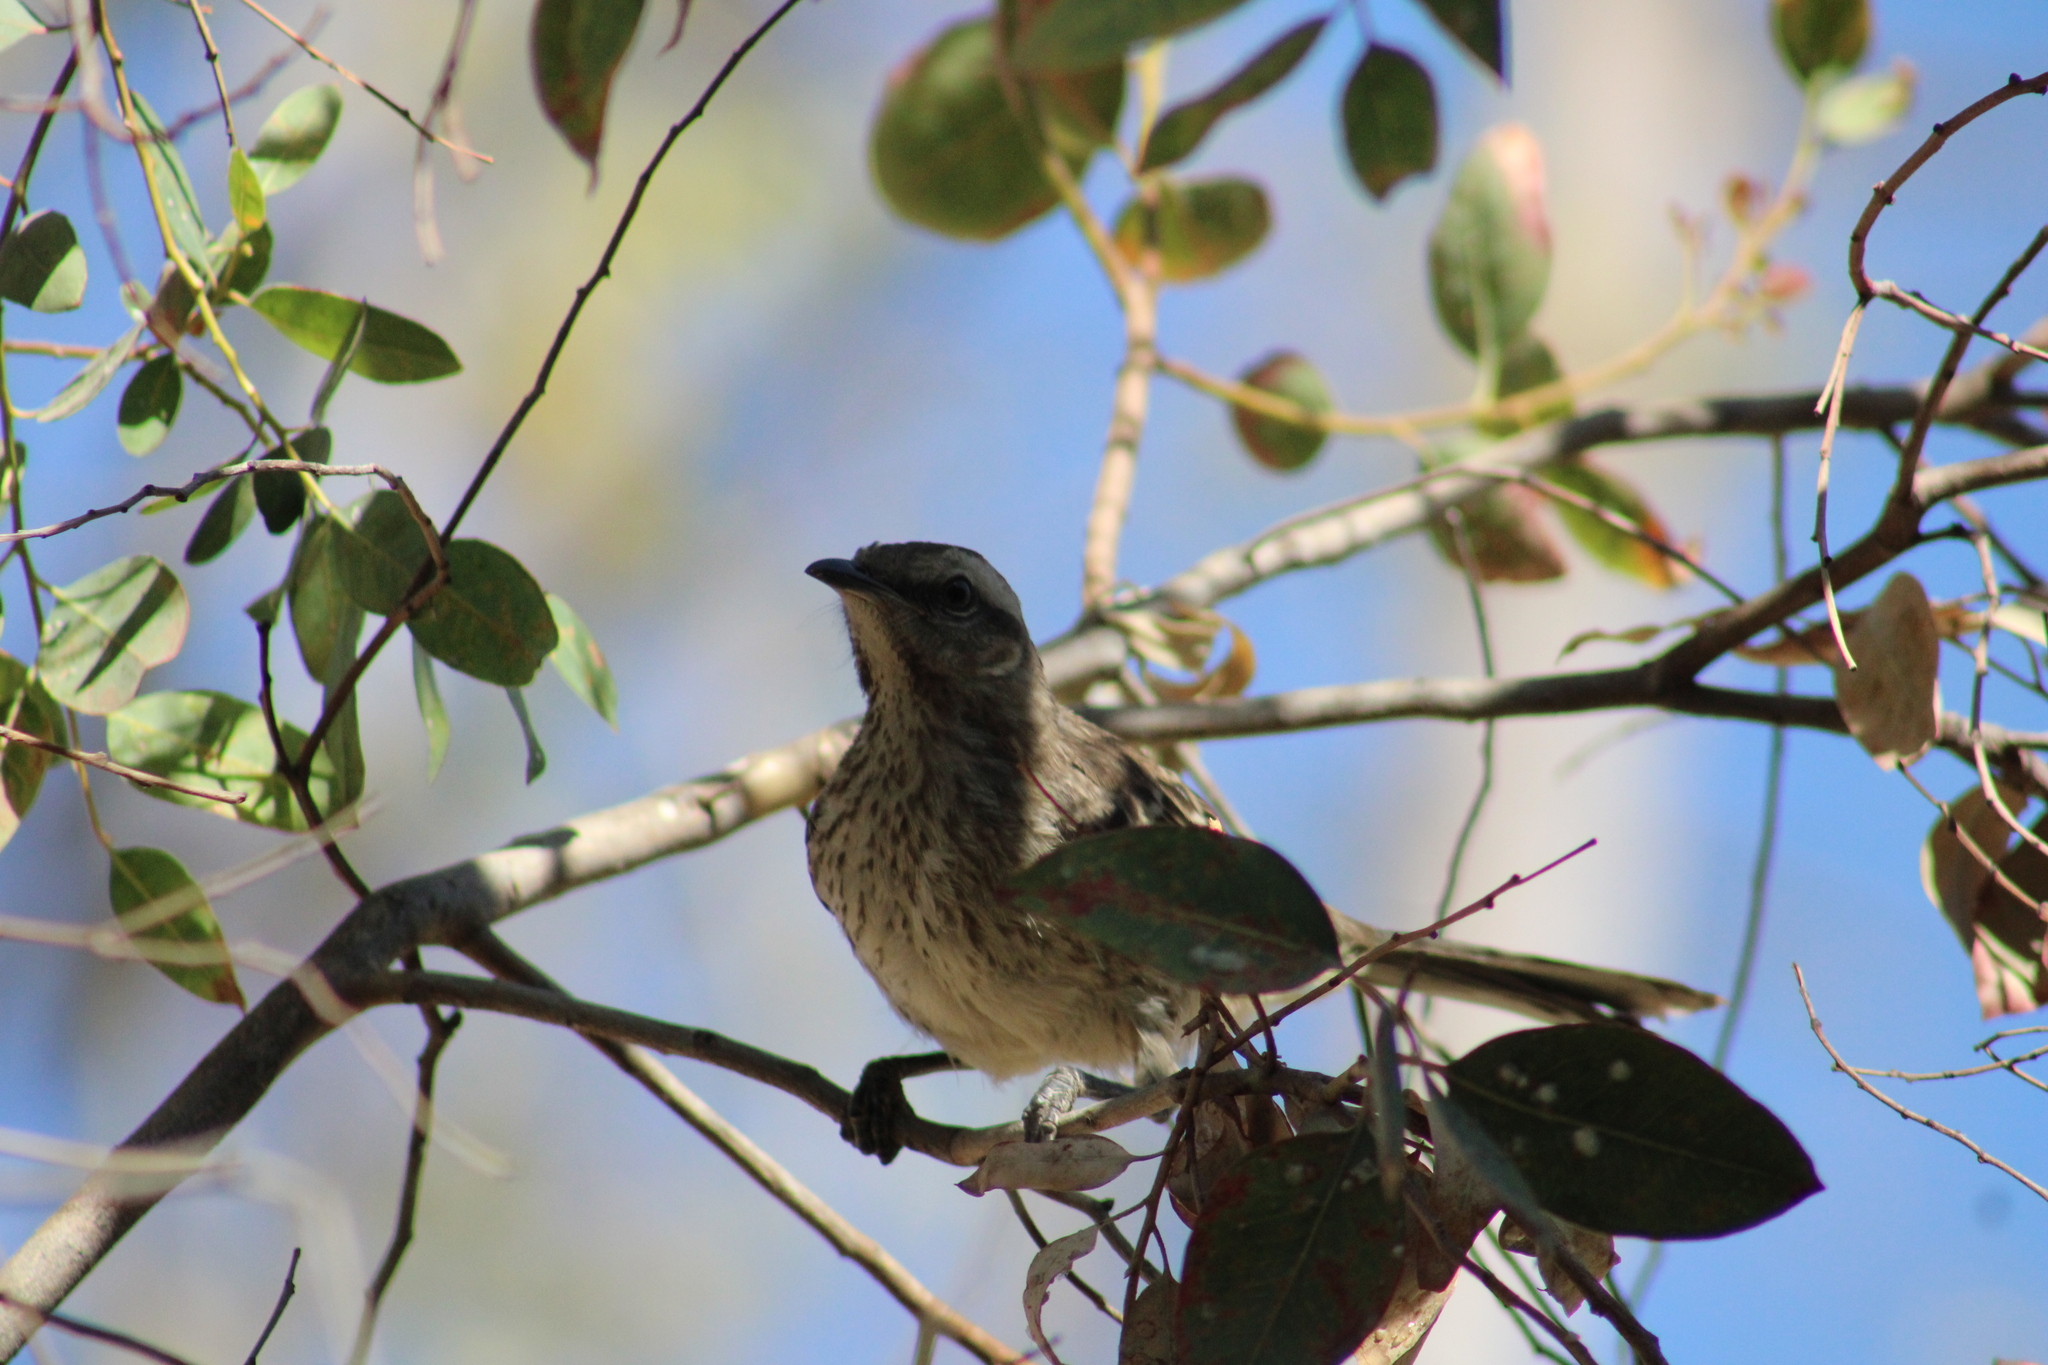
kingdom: Animalia
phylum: Chordata
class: Aves
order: Passeriformes
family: Mimidae
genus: Mimus
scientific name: Mimus thenca
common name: Chilean mockingbird
